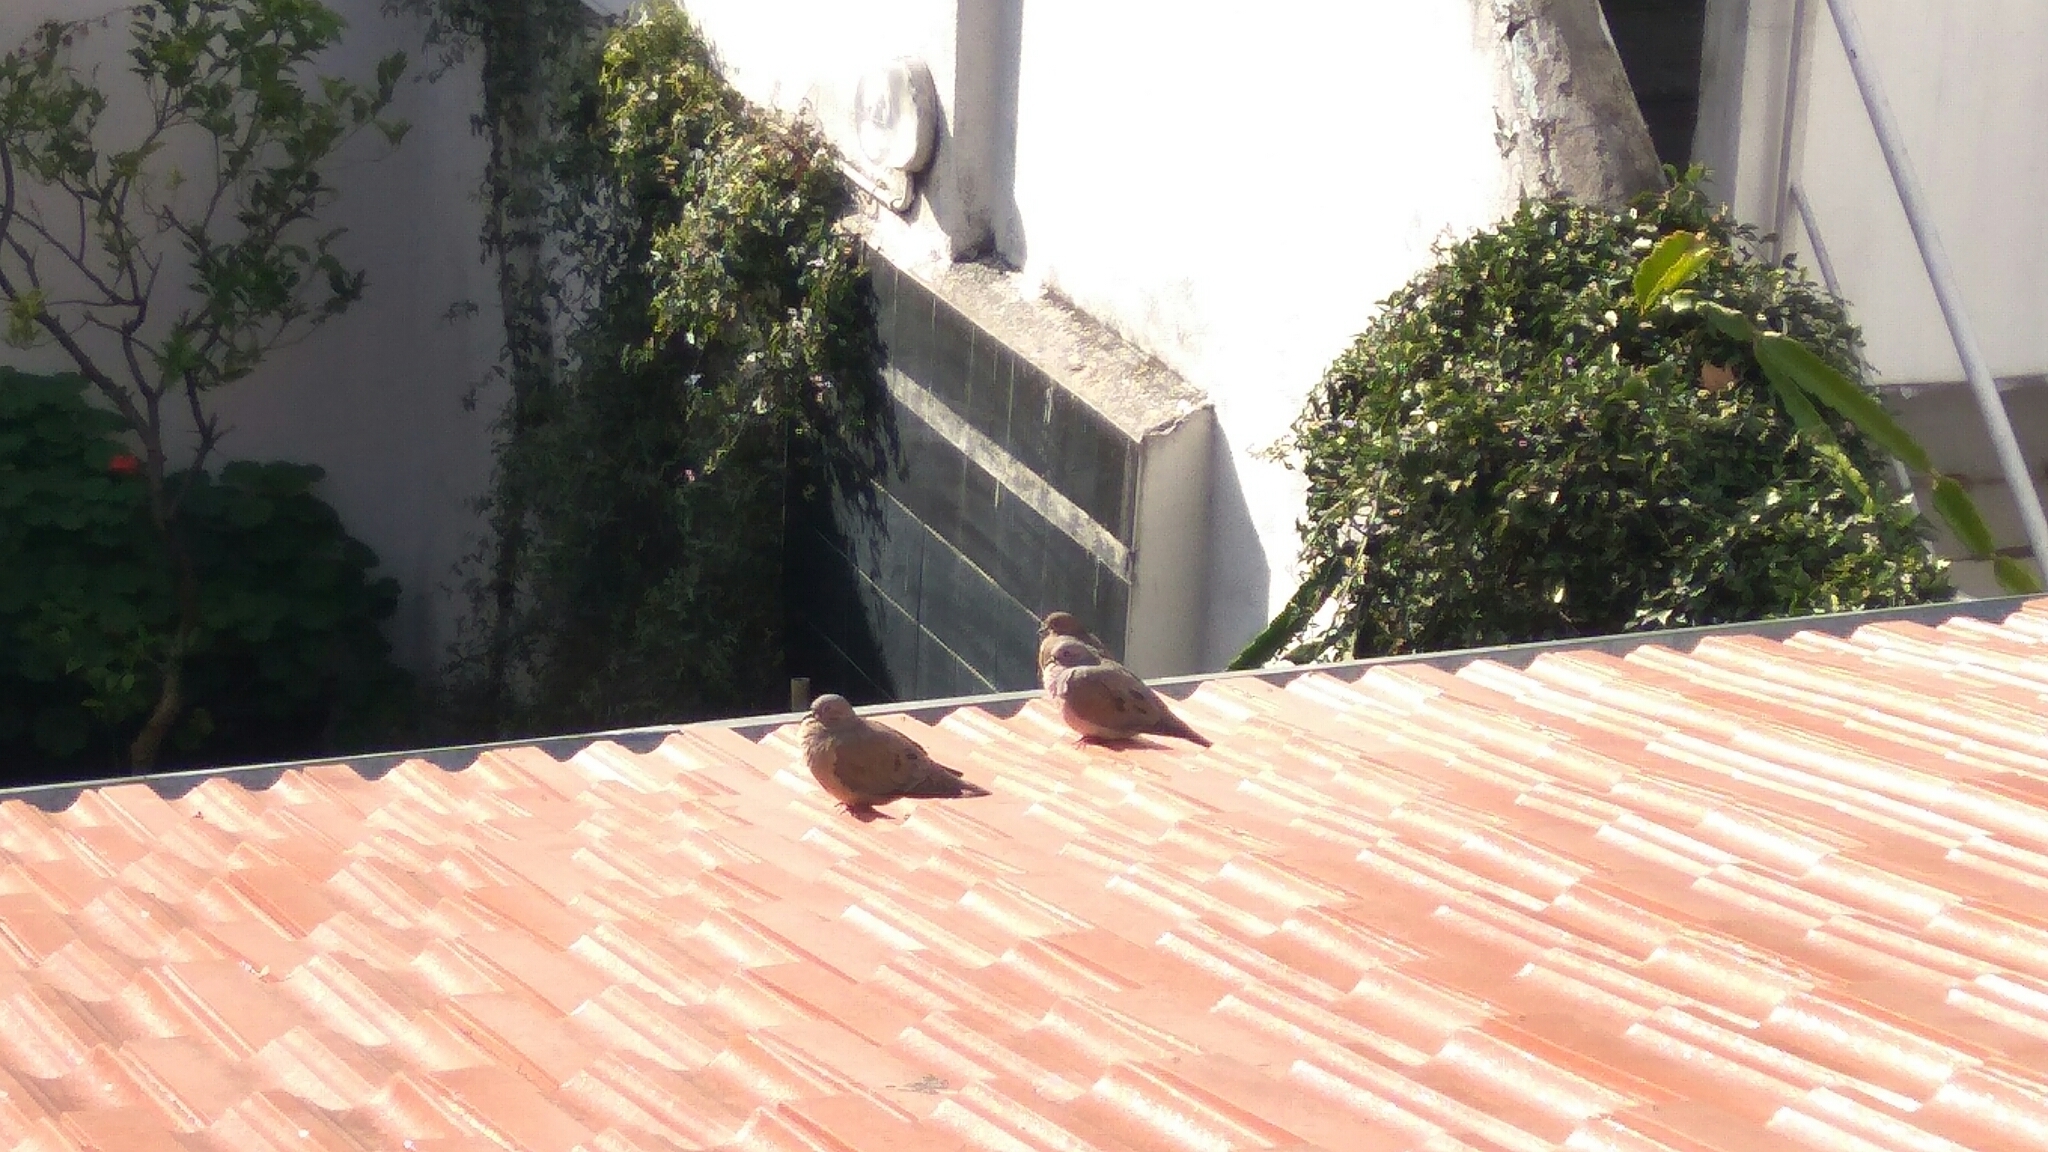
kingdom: Animalia
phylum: Chordata
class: Aves
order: Columbiformes
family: Columbidae
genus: Zenaida
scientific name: Zenaida auriculata
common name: Eared dove
